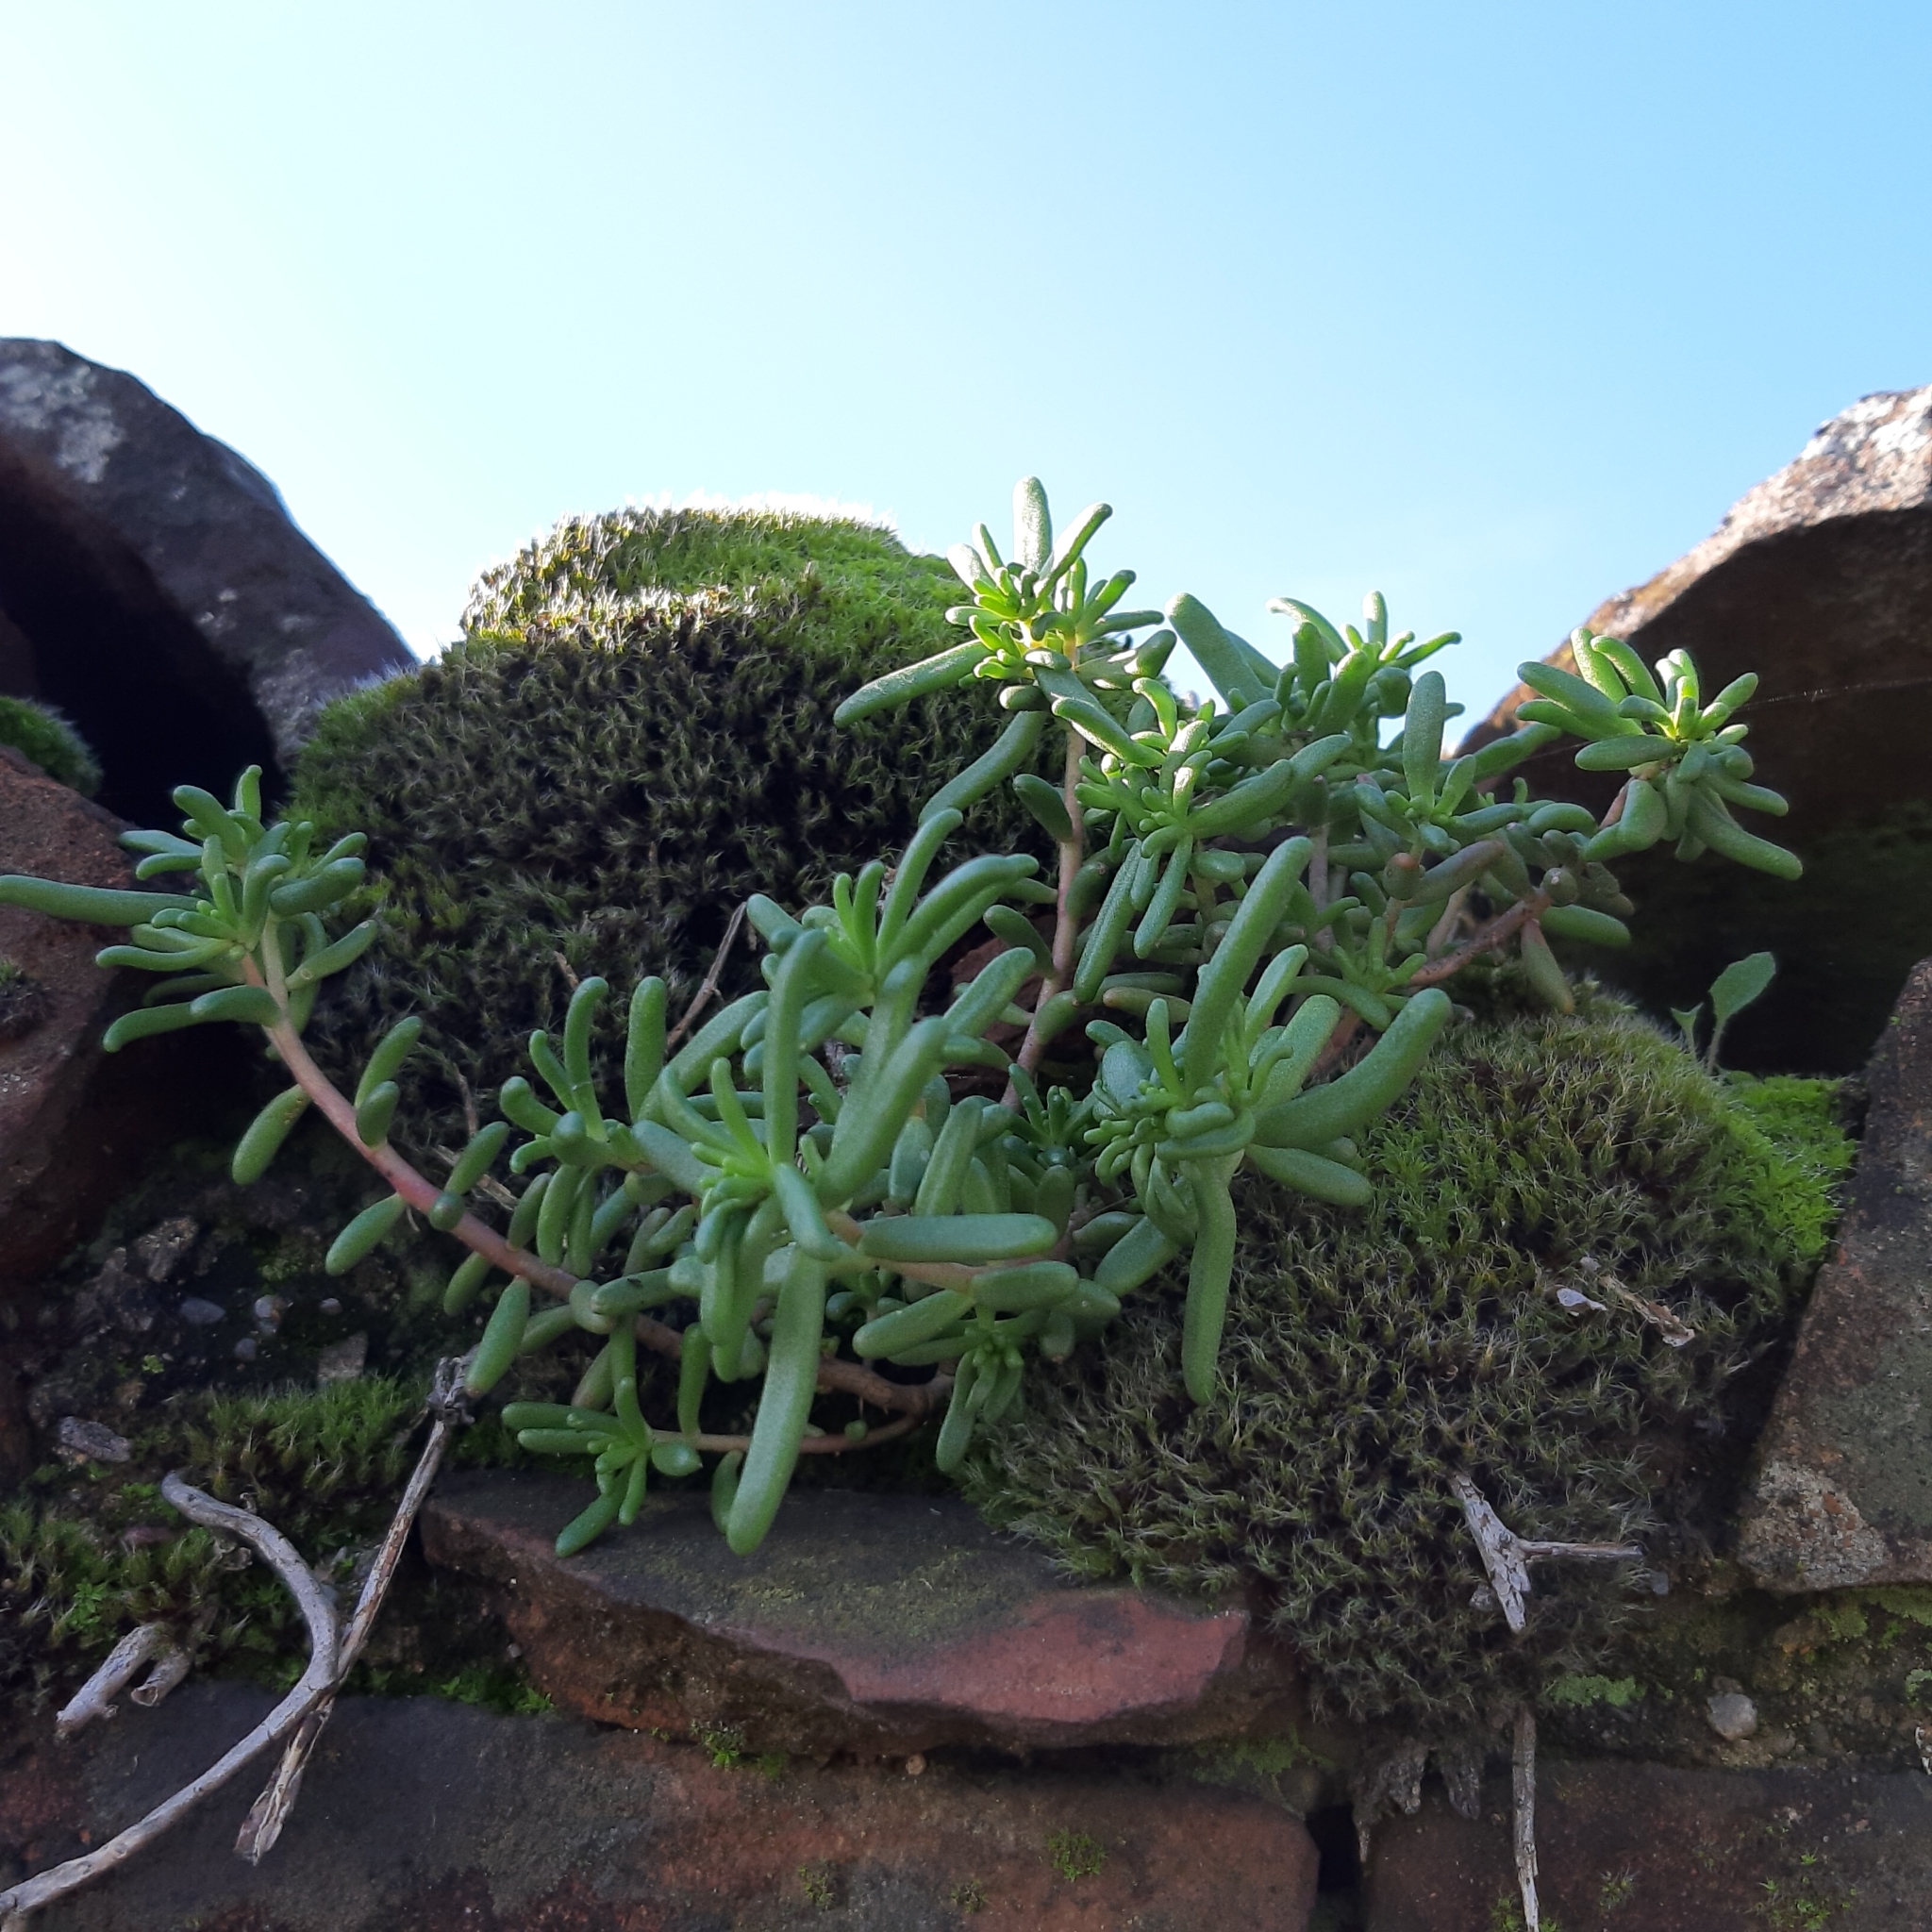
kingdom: Plantae
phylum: Tracheophyta
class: Magnoliopsida
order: Saxifragales
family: Crassulaceae
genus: Sedum
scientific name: Sedum album
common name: White stonecrop
